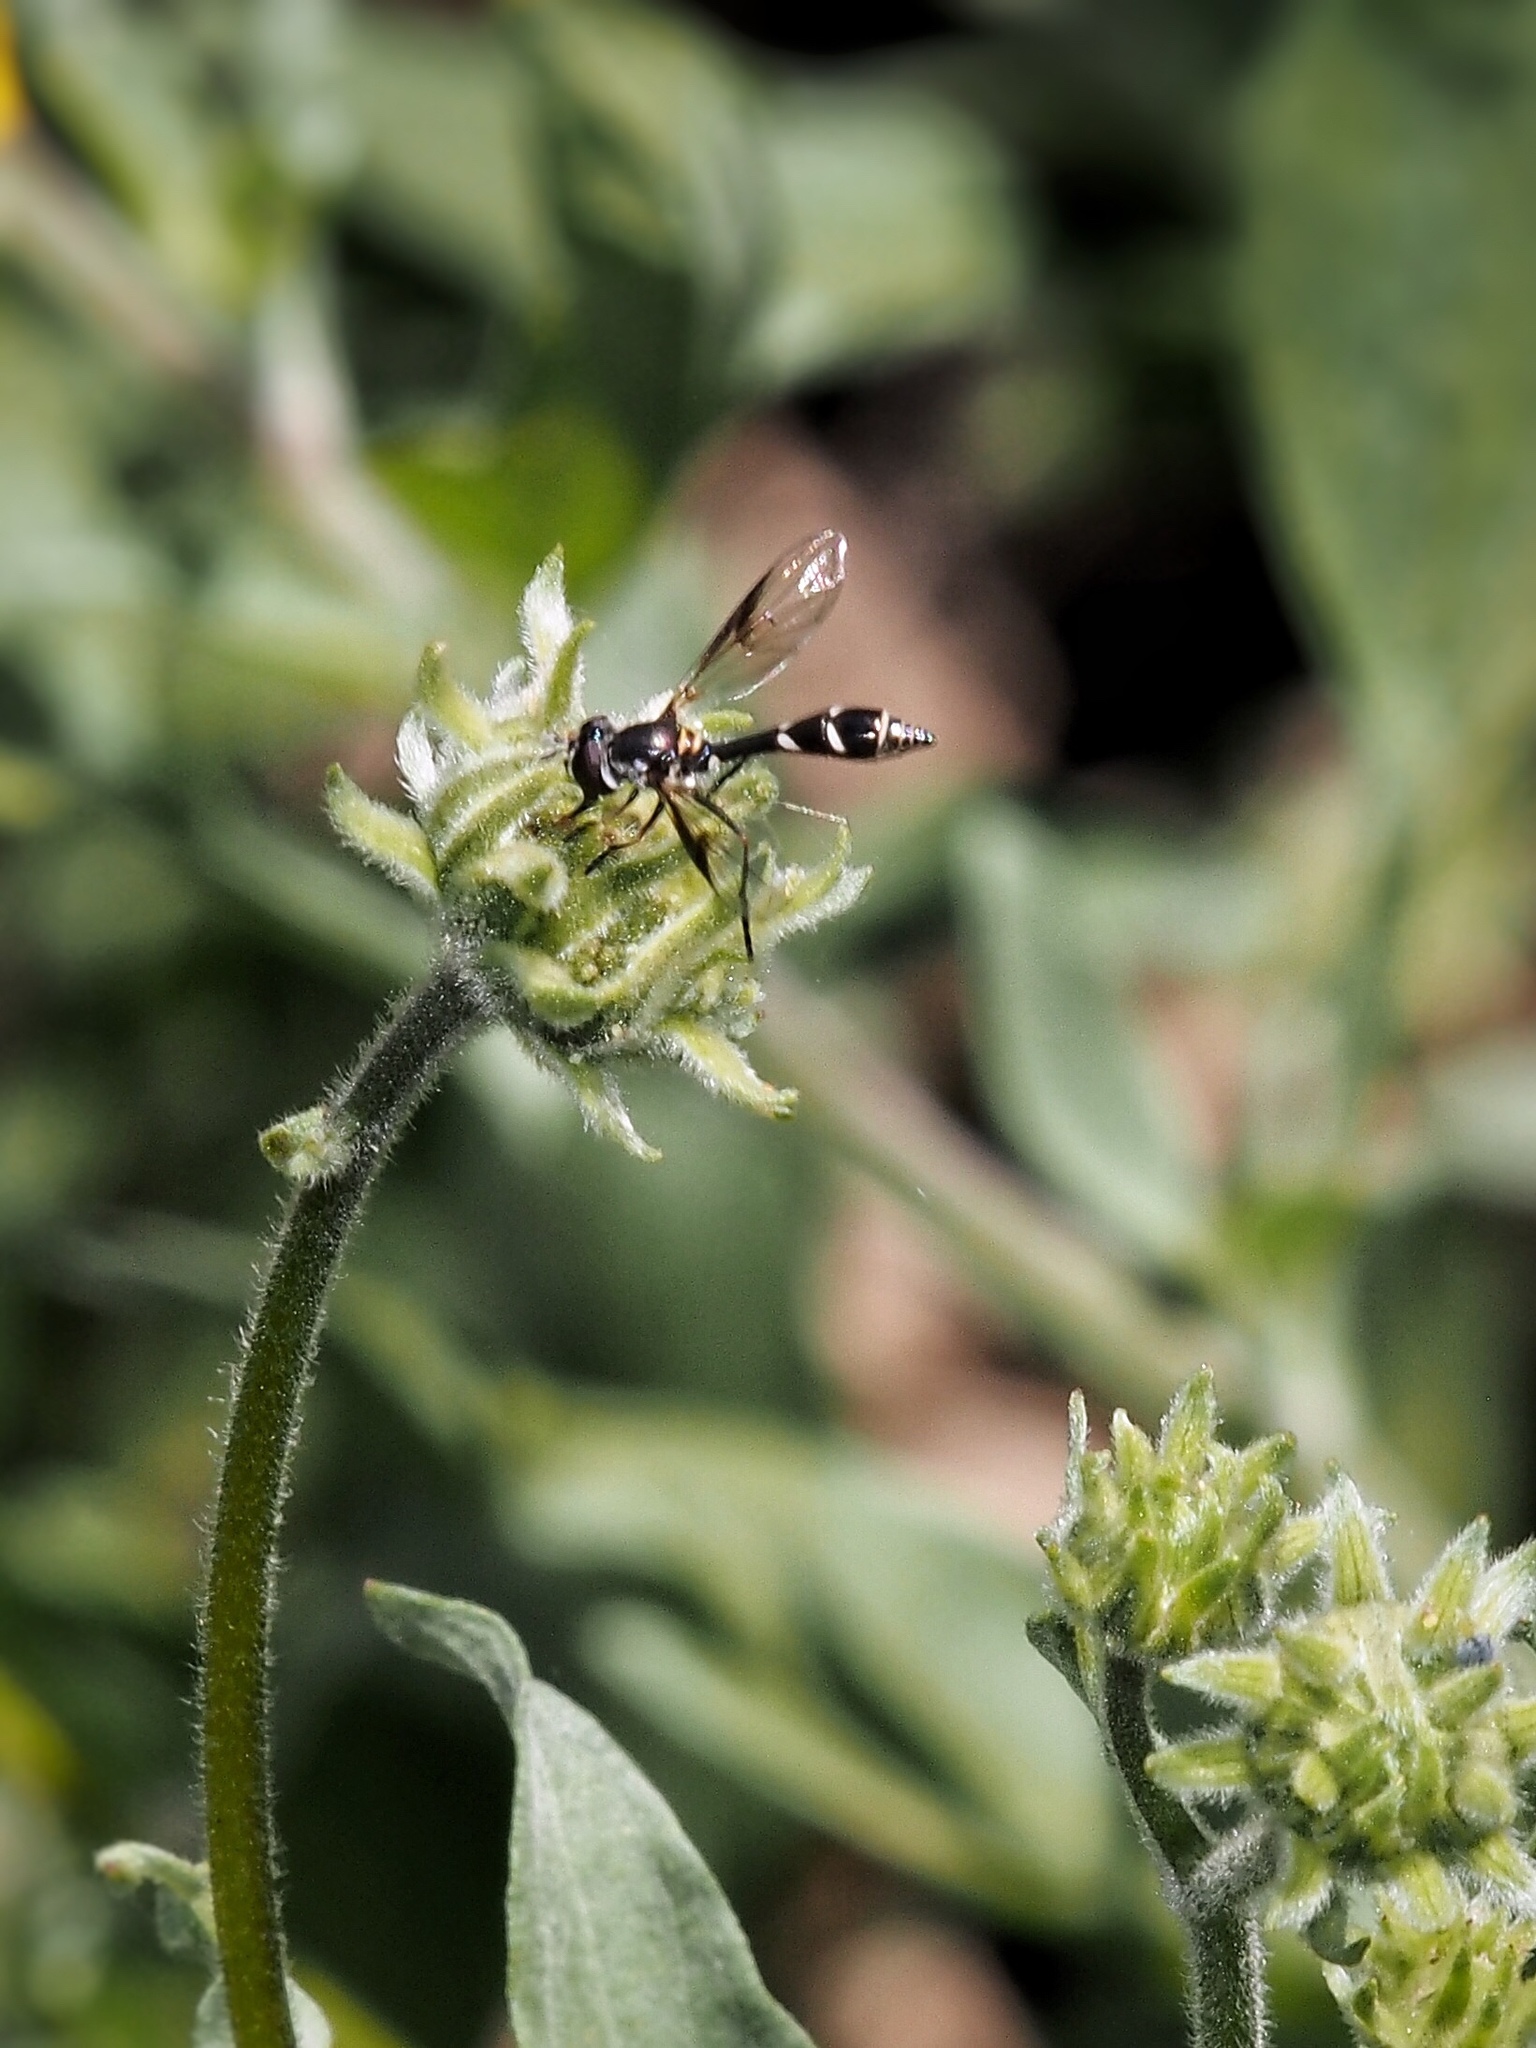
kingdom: Animalia
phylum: Arthropoda
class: Insecta
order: Diptera
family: Syrphidae
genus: Dioprosopa
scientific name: Dioprosopa clavatus
